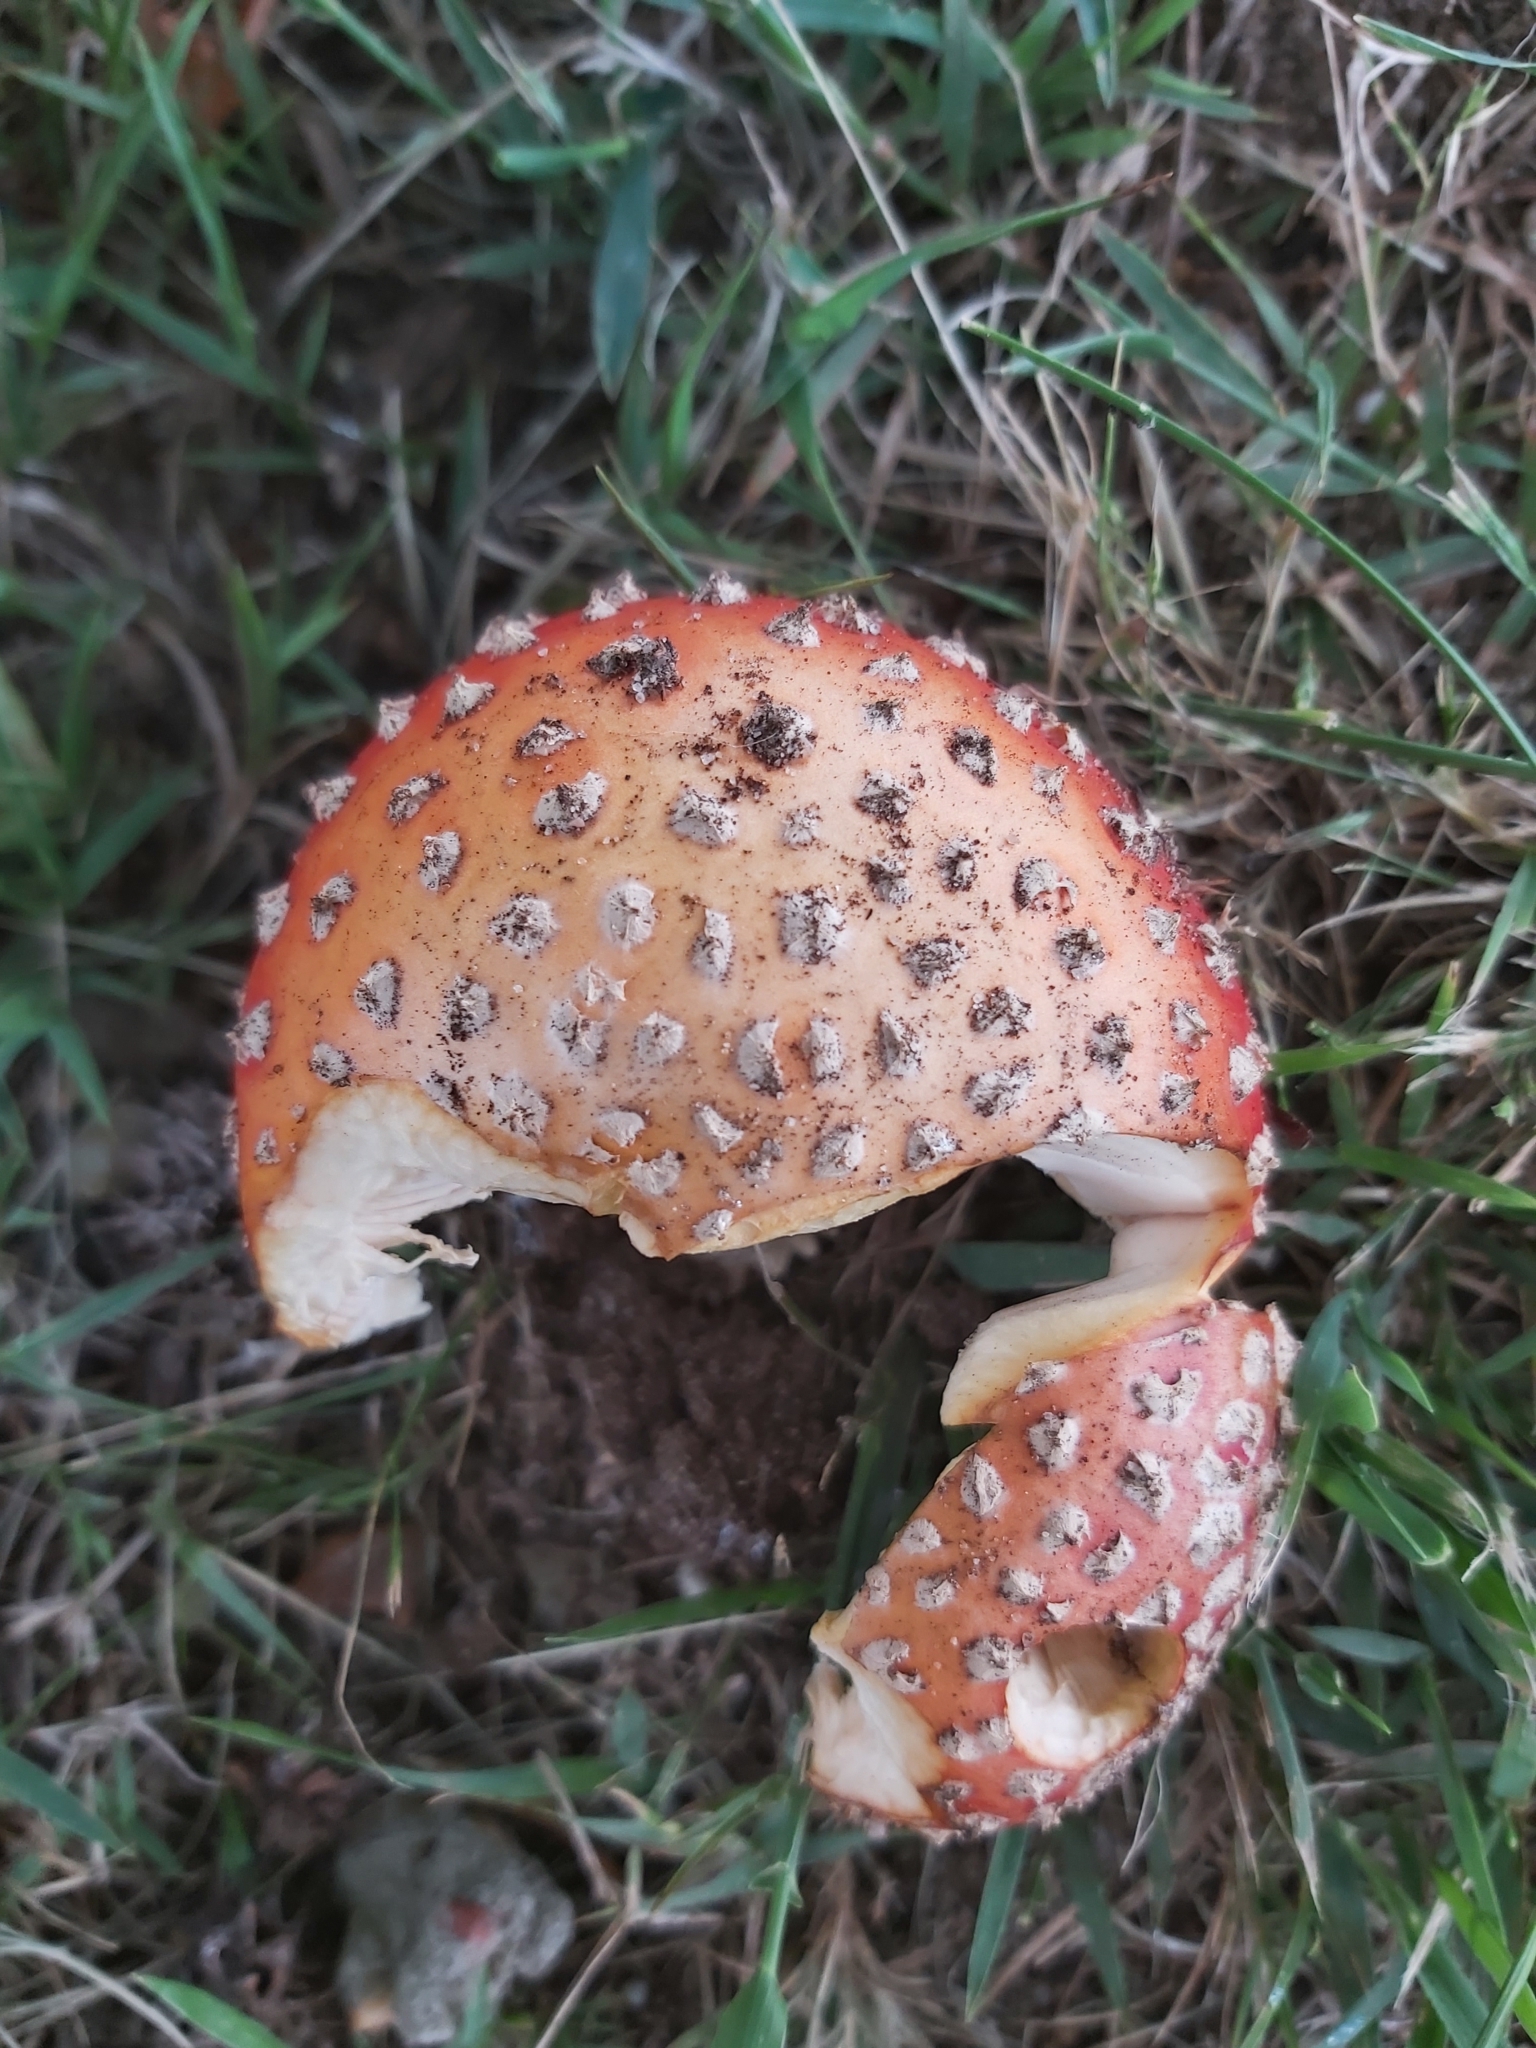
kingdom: Fungi
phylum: Basidiomycota
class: Agaricomycetes
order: Agaricales
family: Amanitaceae
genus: Amanita
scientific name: Amanita muscaria
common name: Fly agaric
